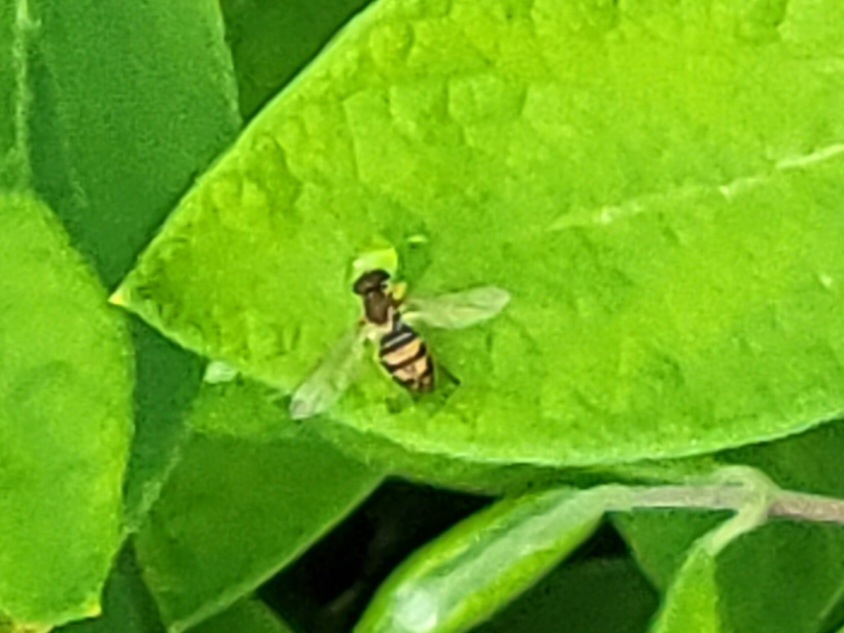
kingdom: Animalia
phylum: Arthropoda
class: Insecta
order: Diptera
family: Syrphidae
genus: Toxomerus
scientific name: Toxomerus marginatus
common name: Syrphid fly
